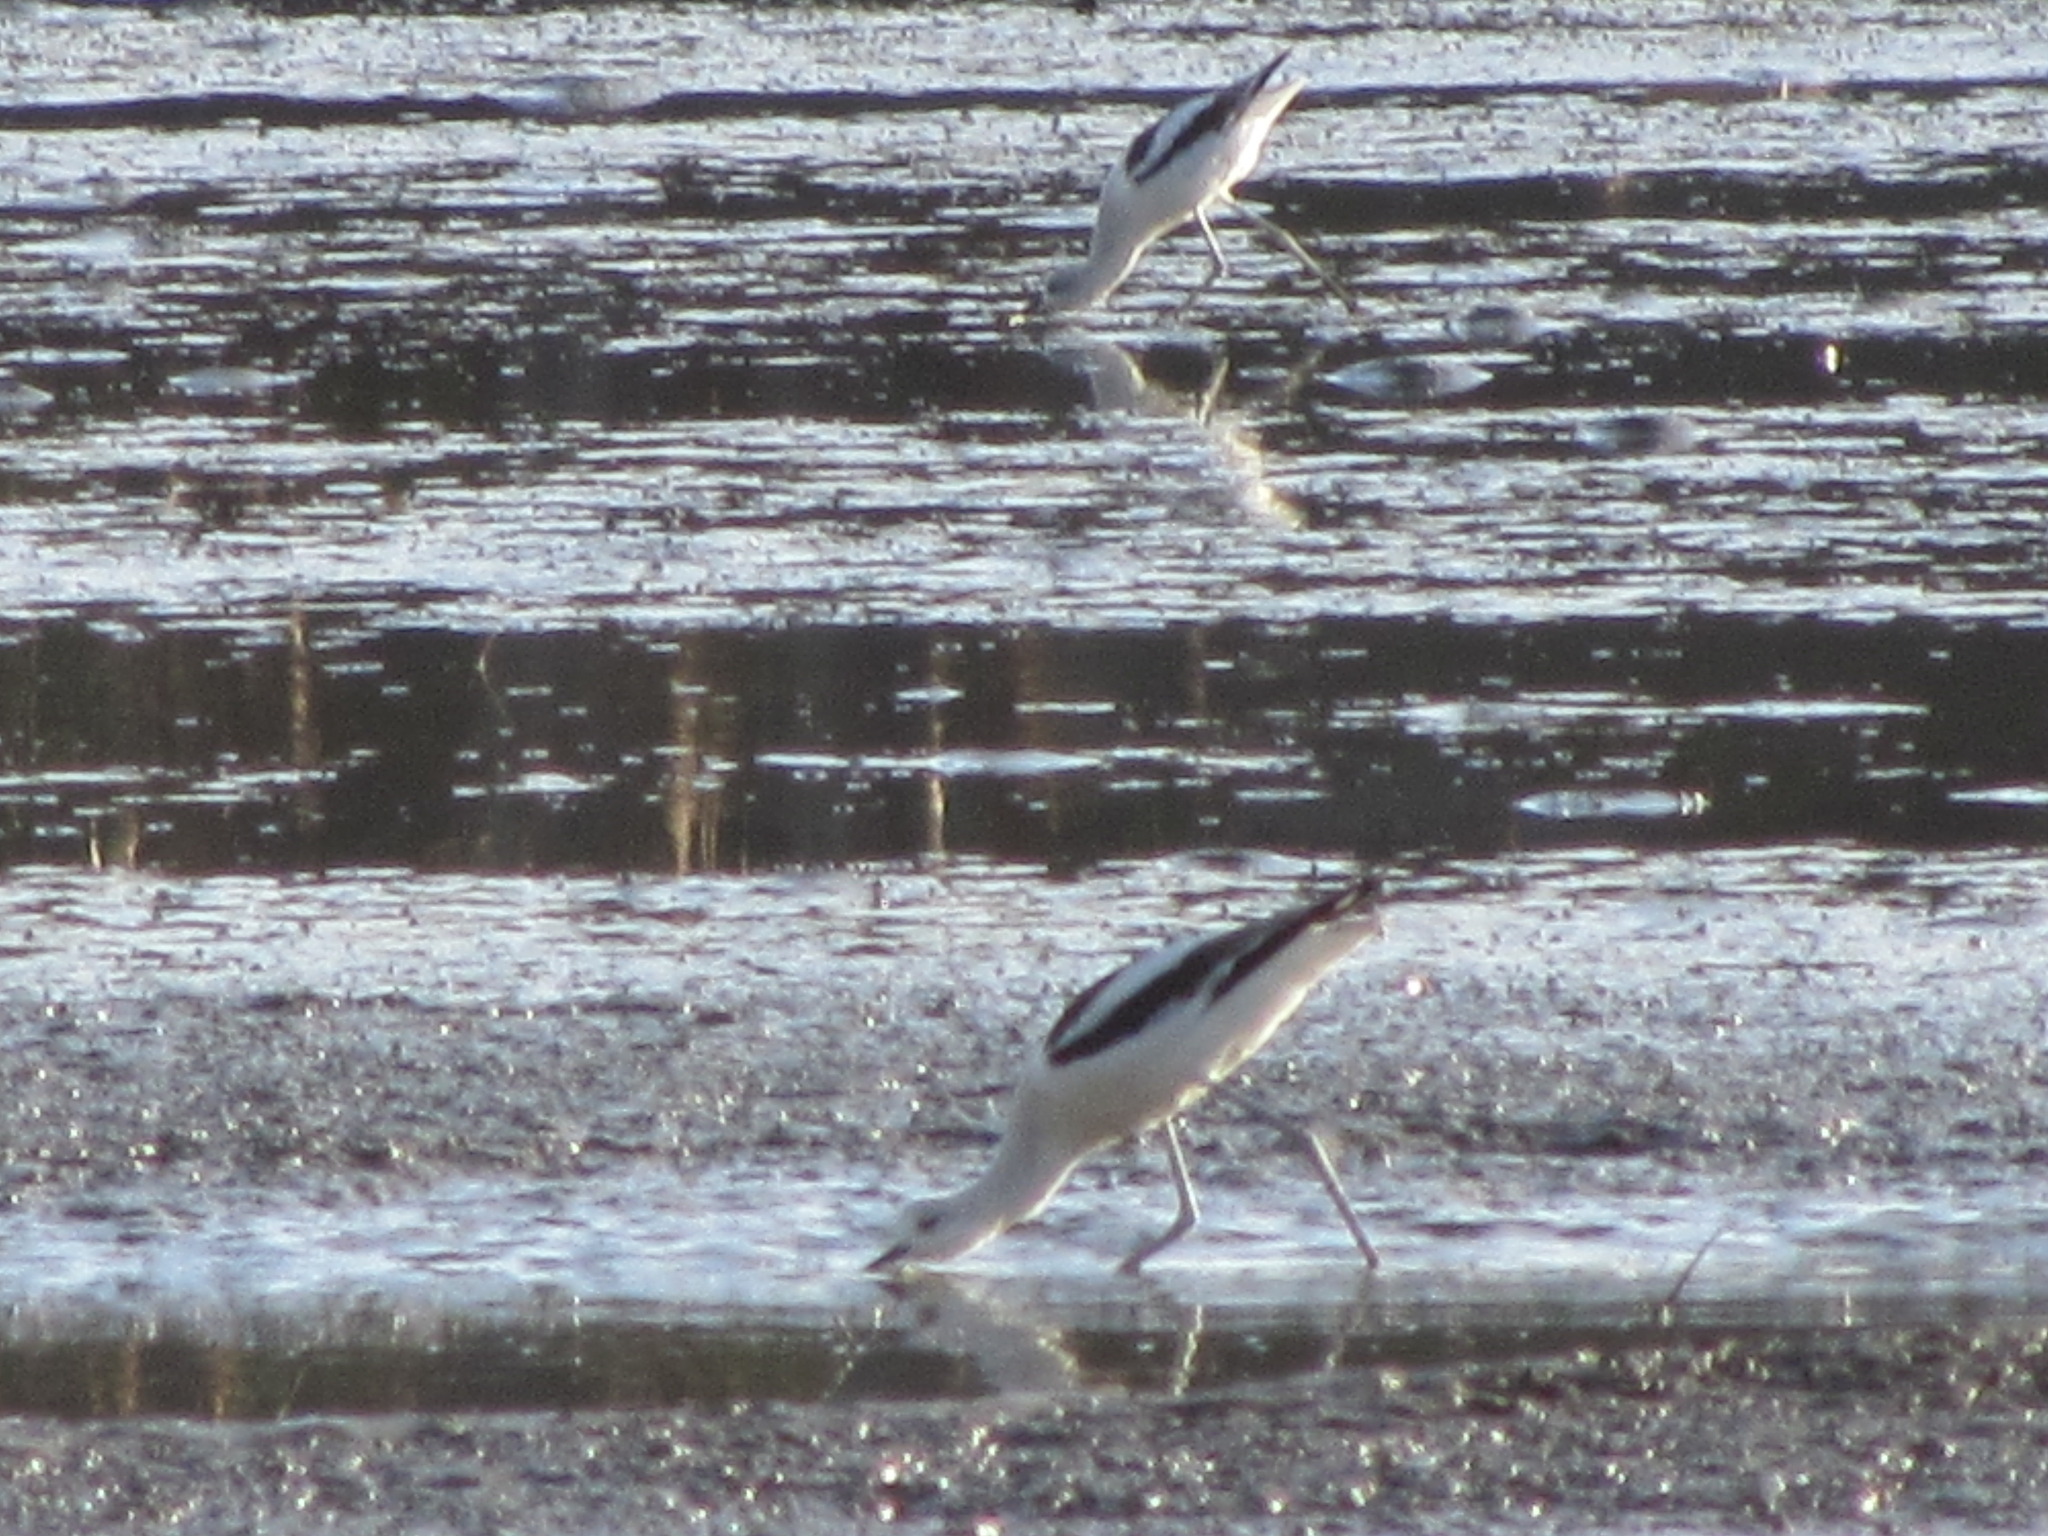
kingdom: Animalia
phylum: Chordata
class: Aves
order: Charadriiformes
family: Recurvirostridae
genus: Recurvirostra
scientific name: Recurvirostra americana
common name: American avocet
